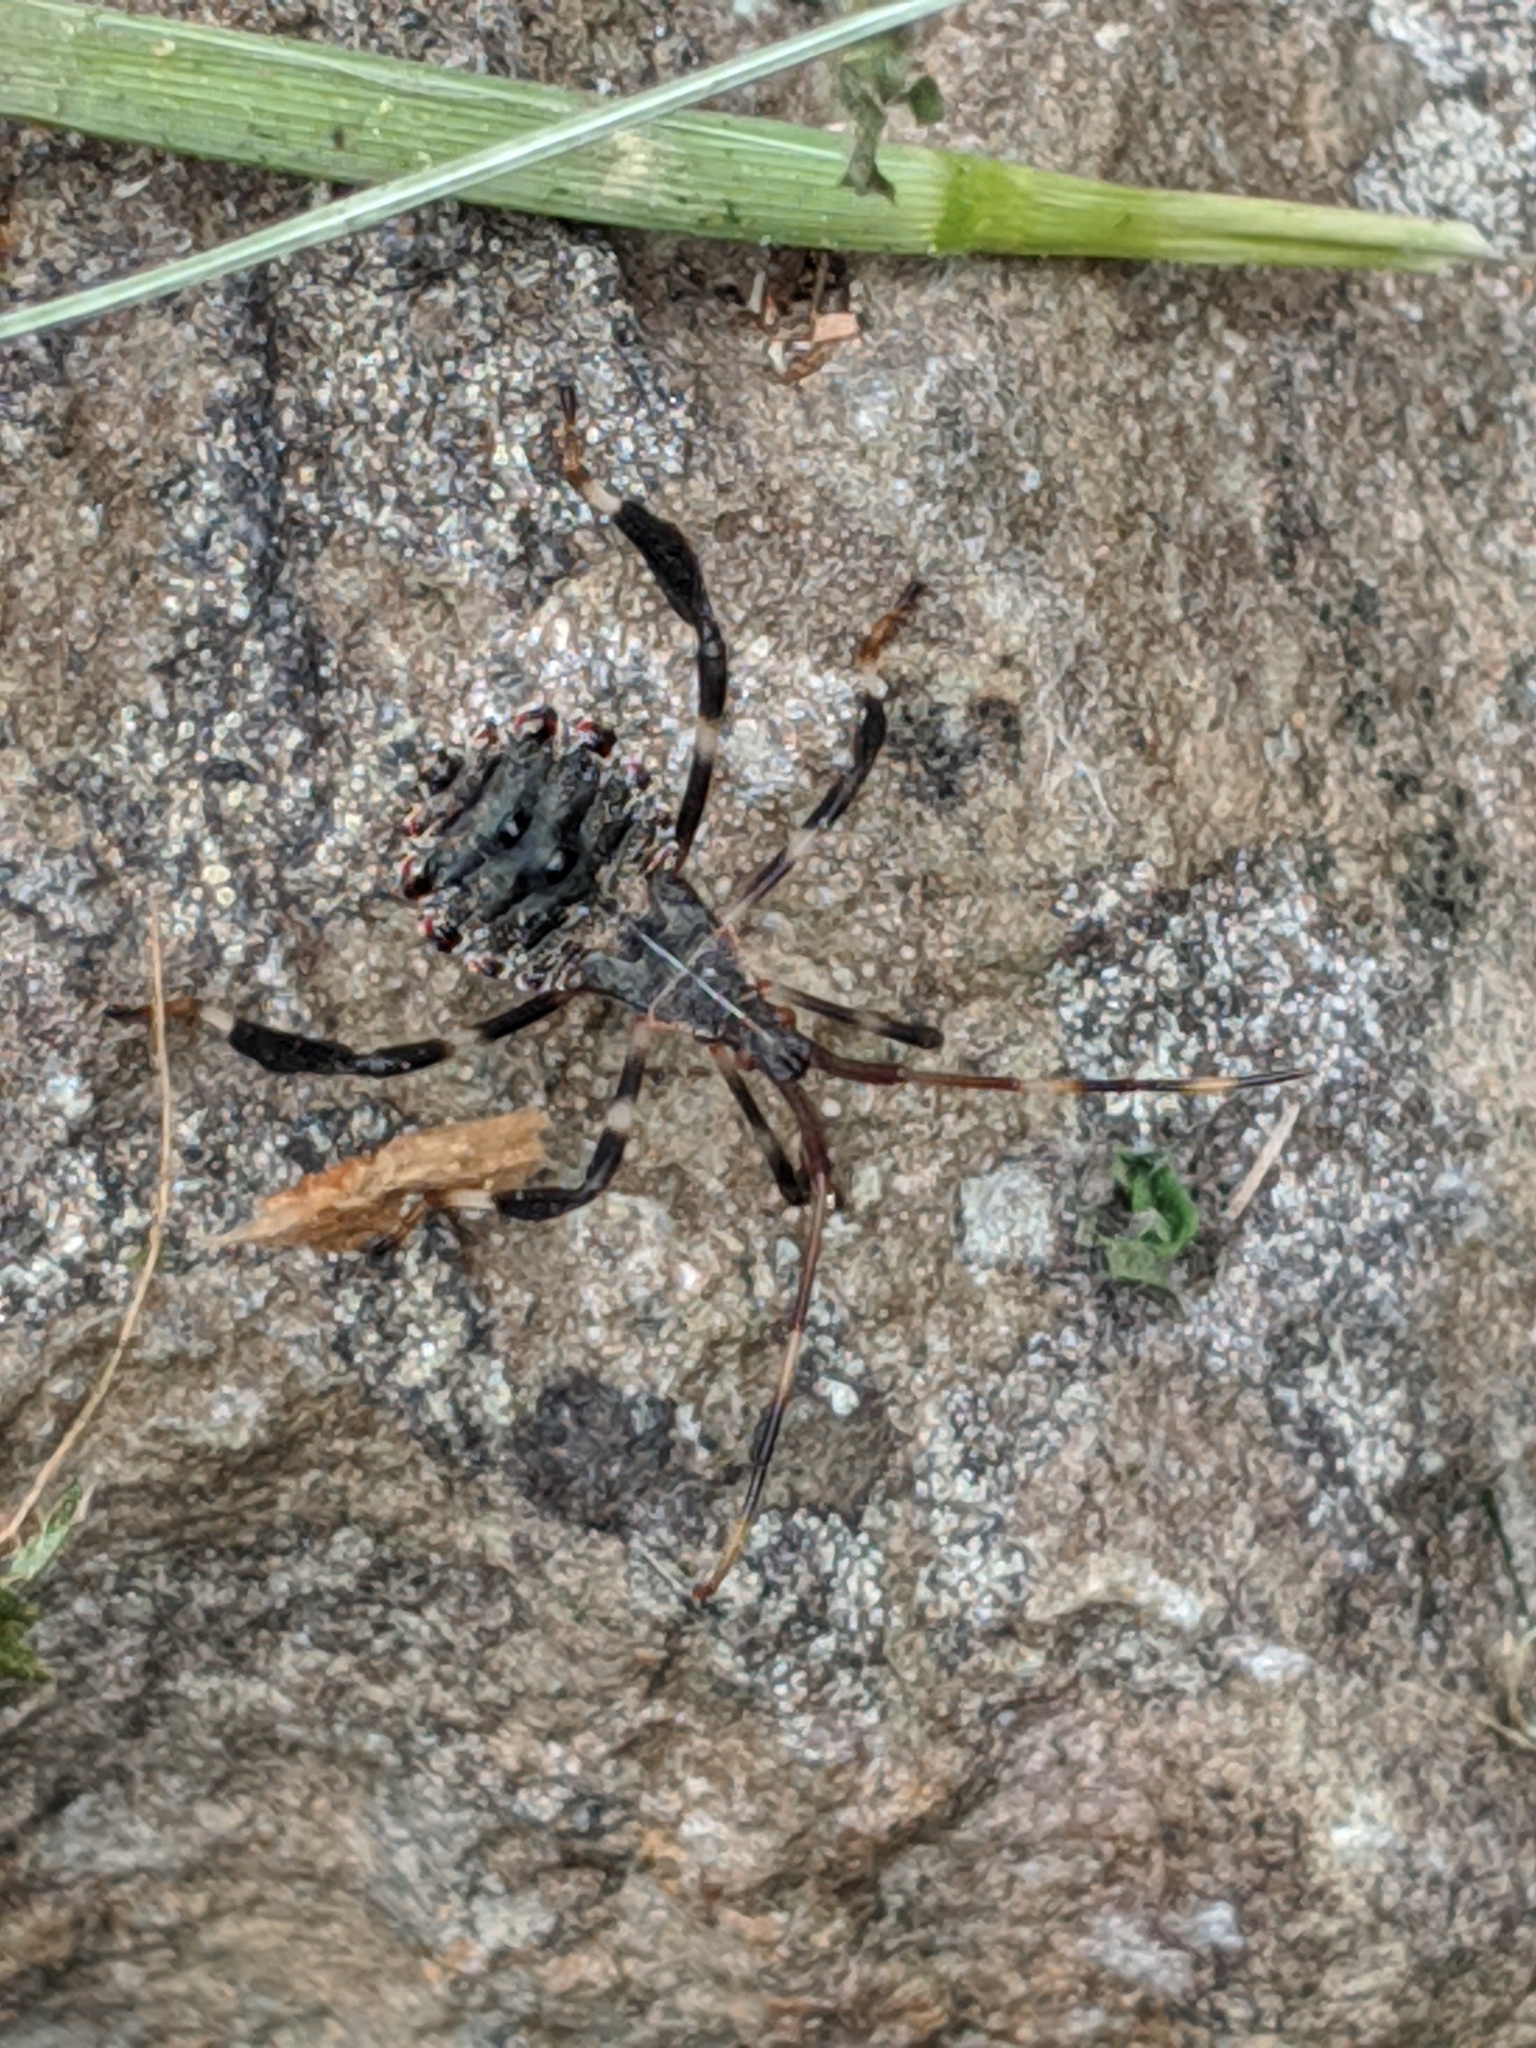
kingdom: Animalia
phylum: Arthropoda
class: Insecta
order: Hemiptera
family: Coreidae
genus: Acanthocephala
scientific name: Acanthocephala terminalis
